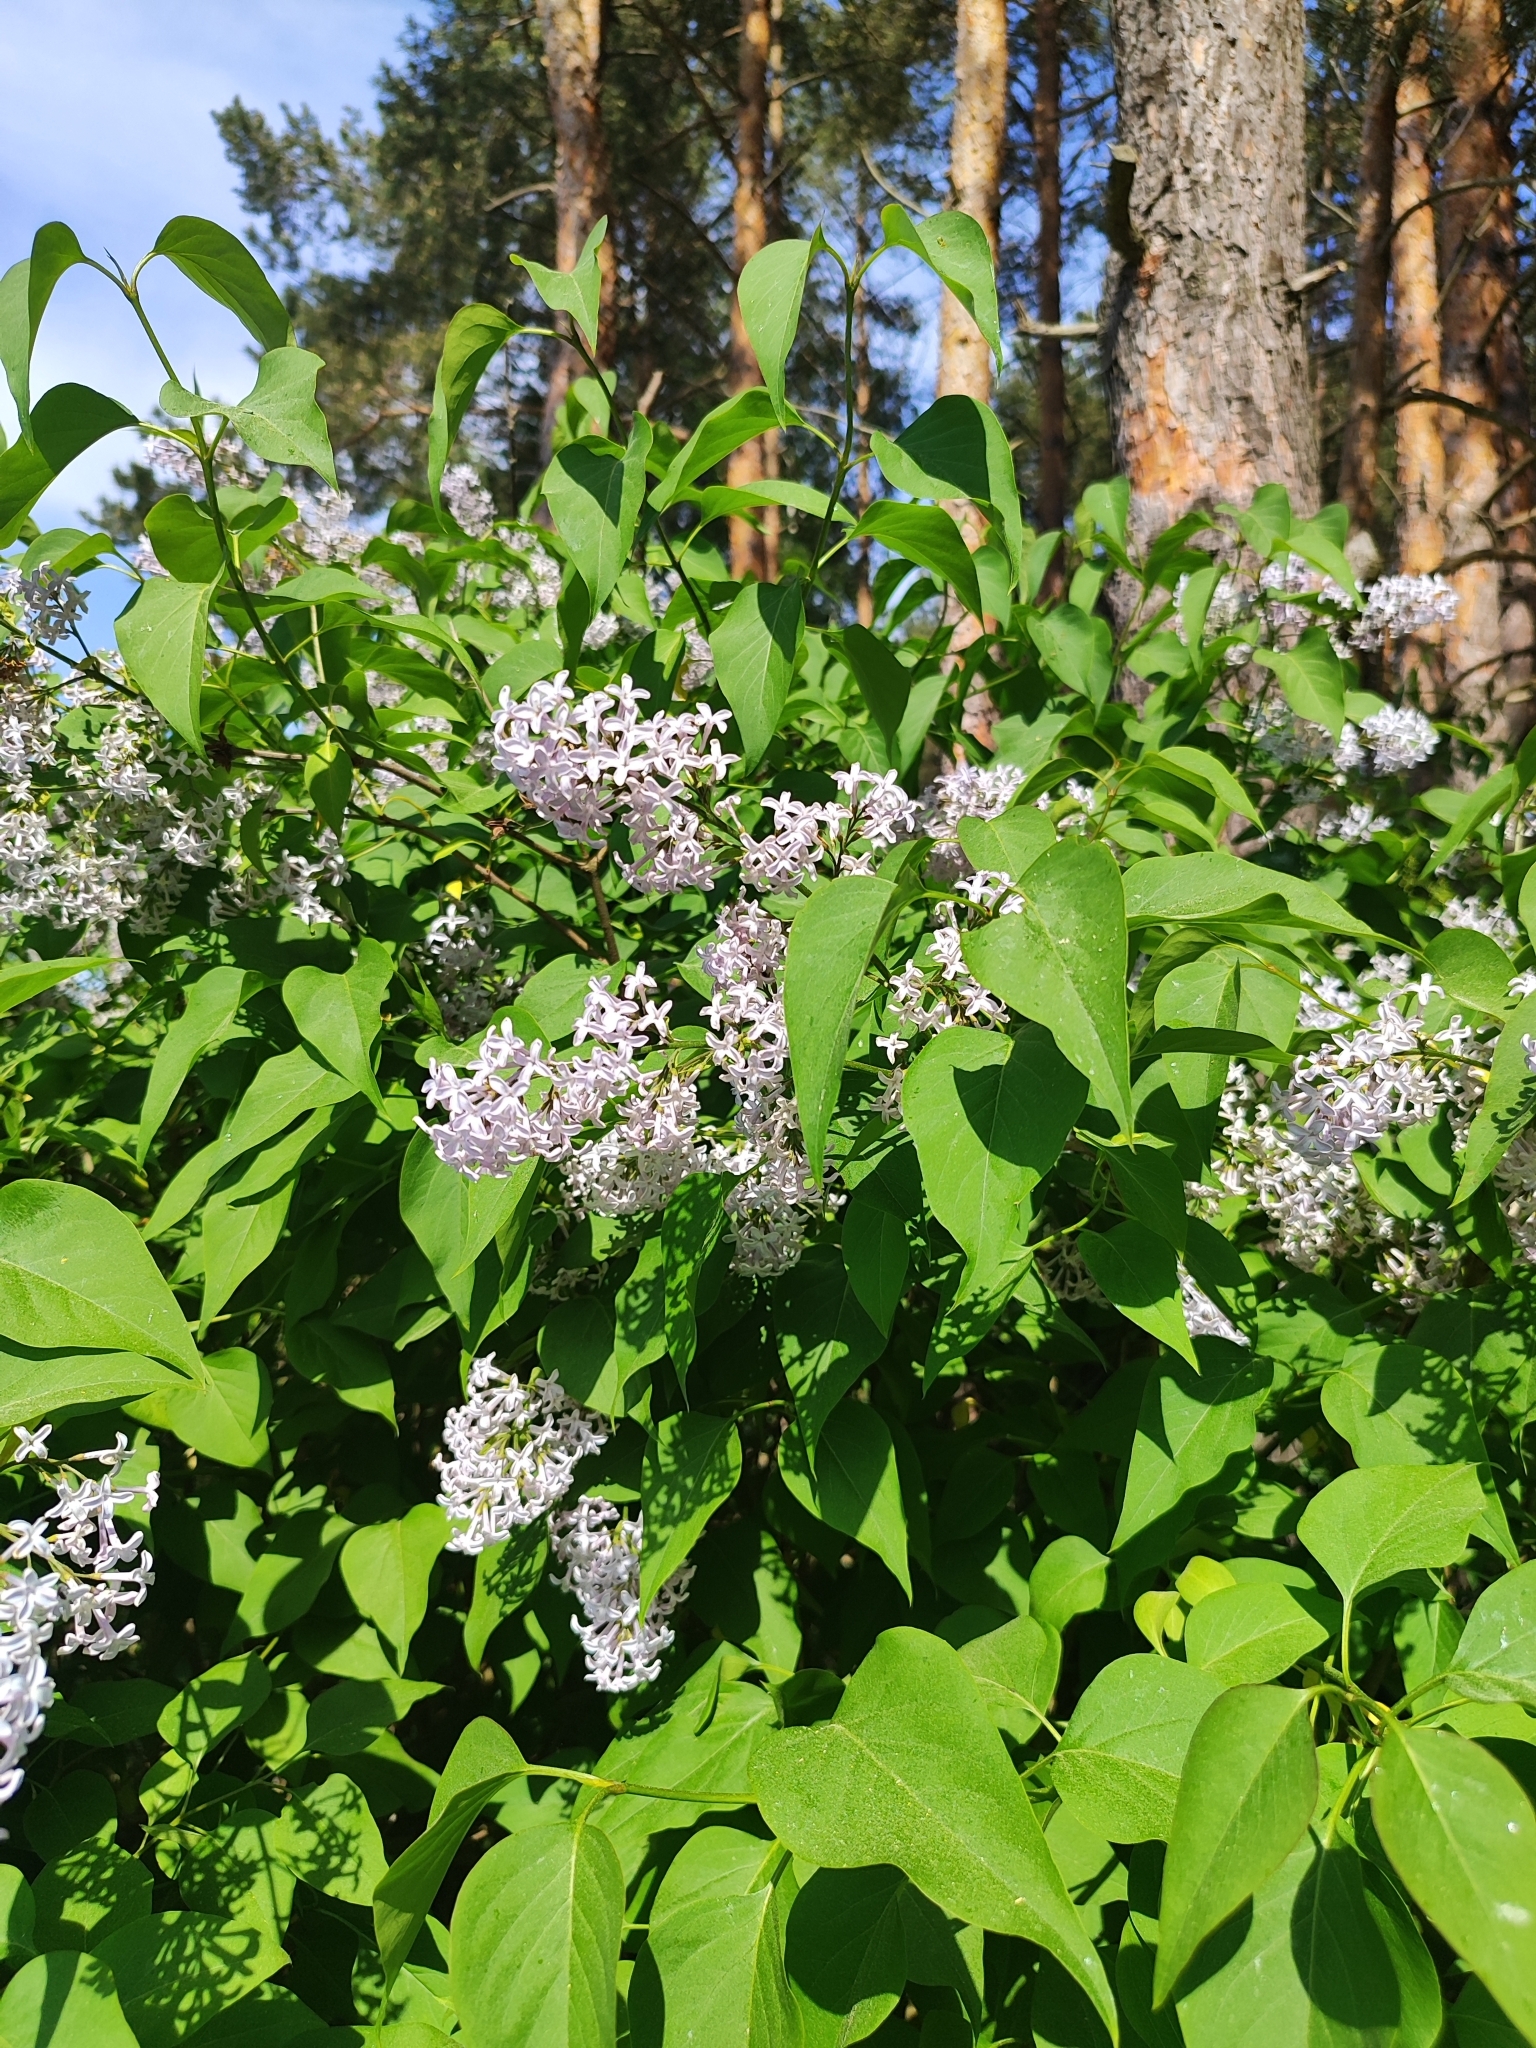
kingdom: Plantae
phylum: Tracheophyta
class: Magnoliopsida
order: Lamiales
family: Oleaceae
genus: Syringa
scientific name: Syringa vulgaris
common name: Common lilac
